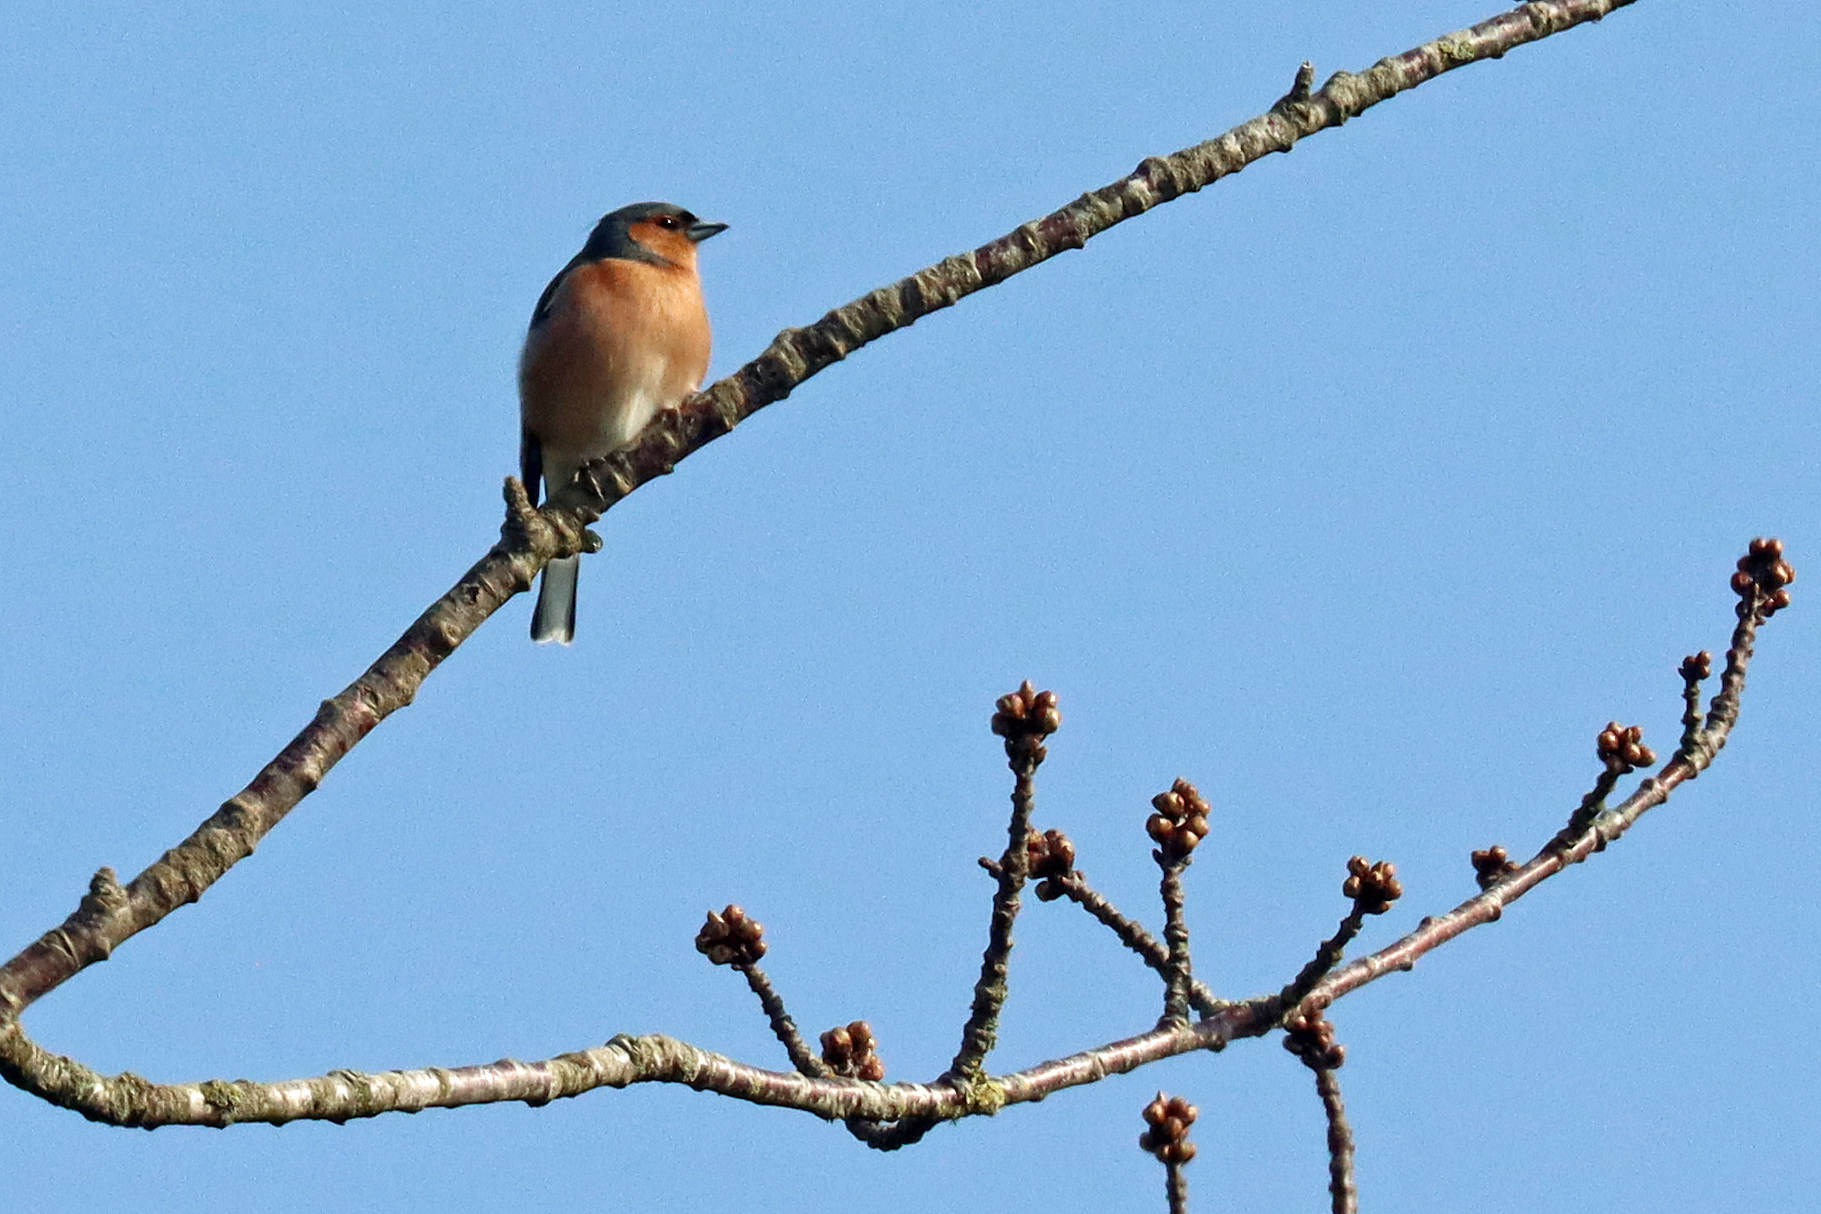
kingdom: Animalia
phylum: Chordata
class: Aves
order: Passeriformes
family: Fringillidae
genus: Fringilla
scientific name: Fringilla coelebs
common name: Common chaffinch
